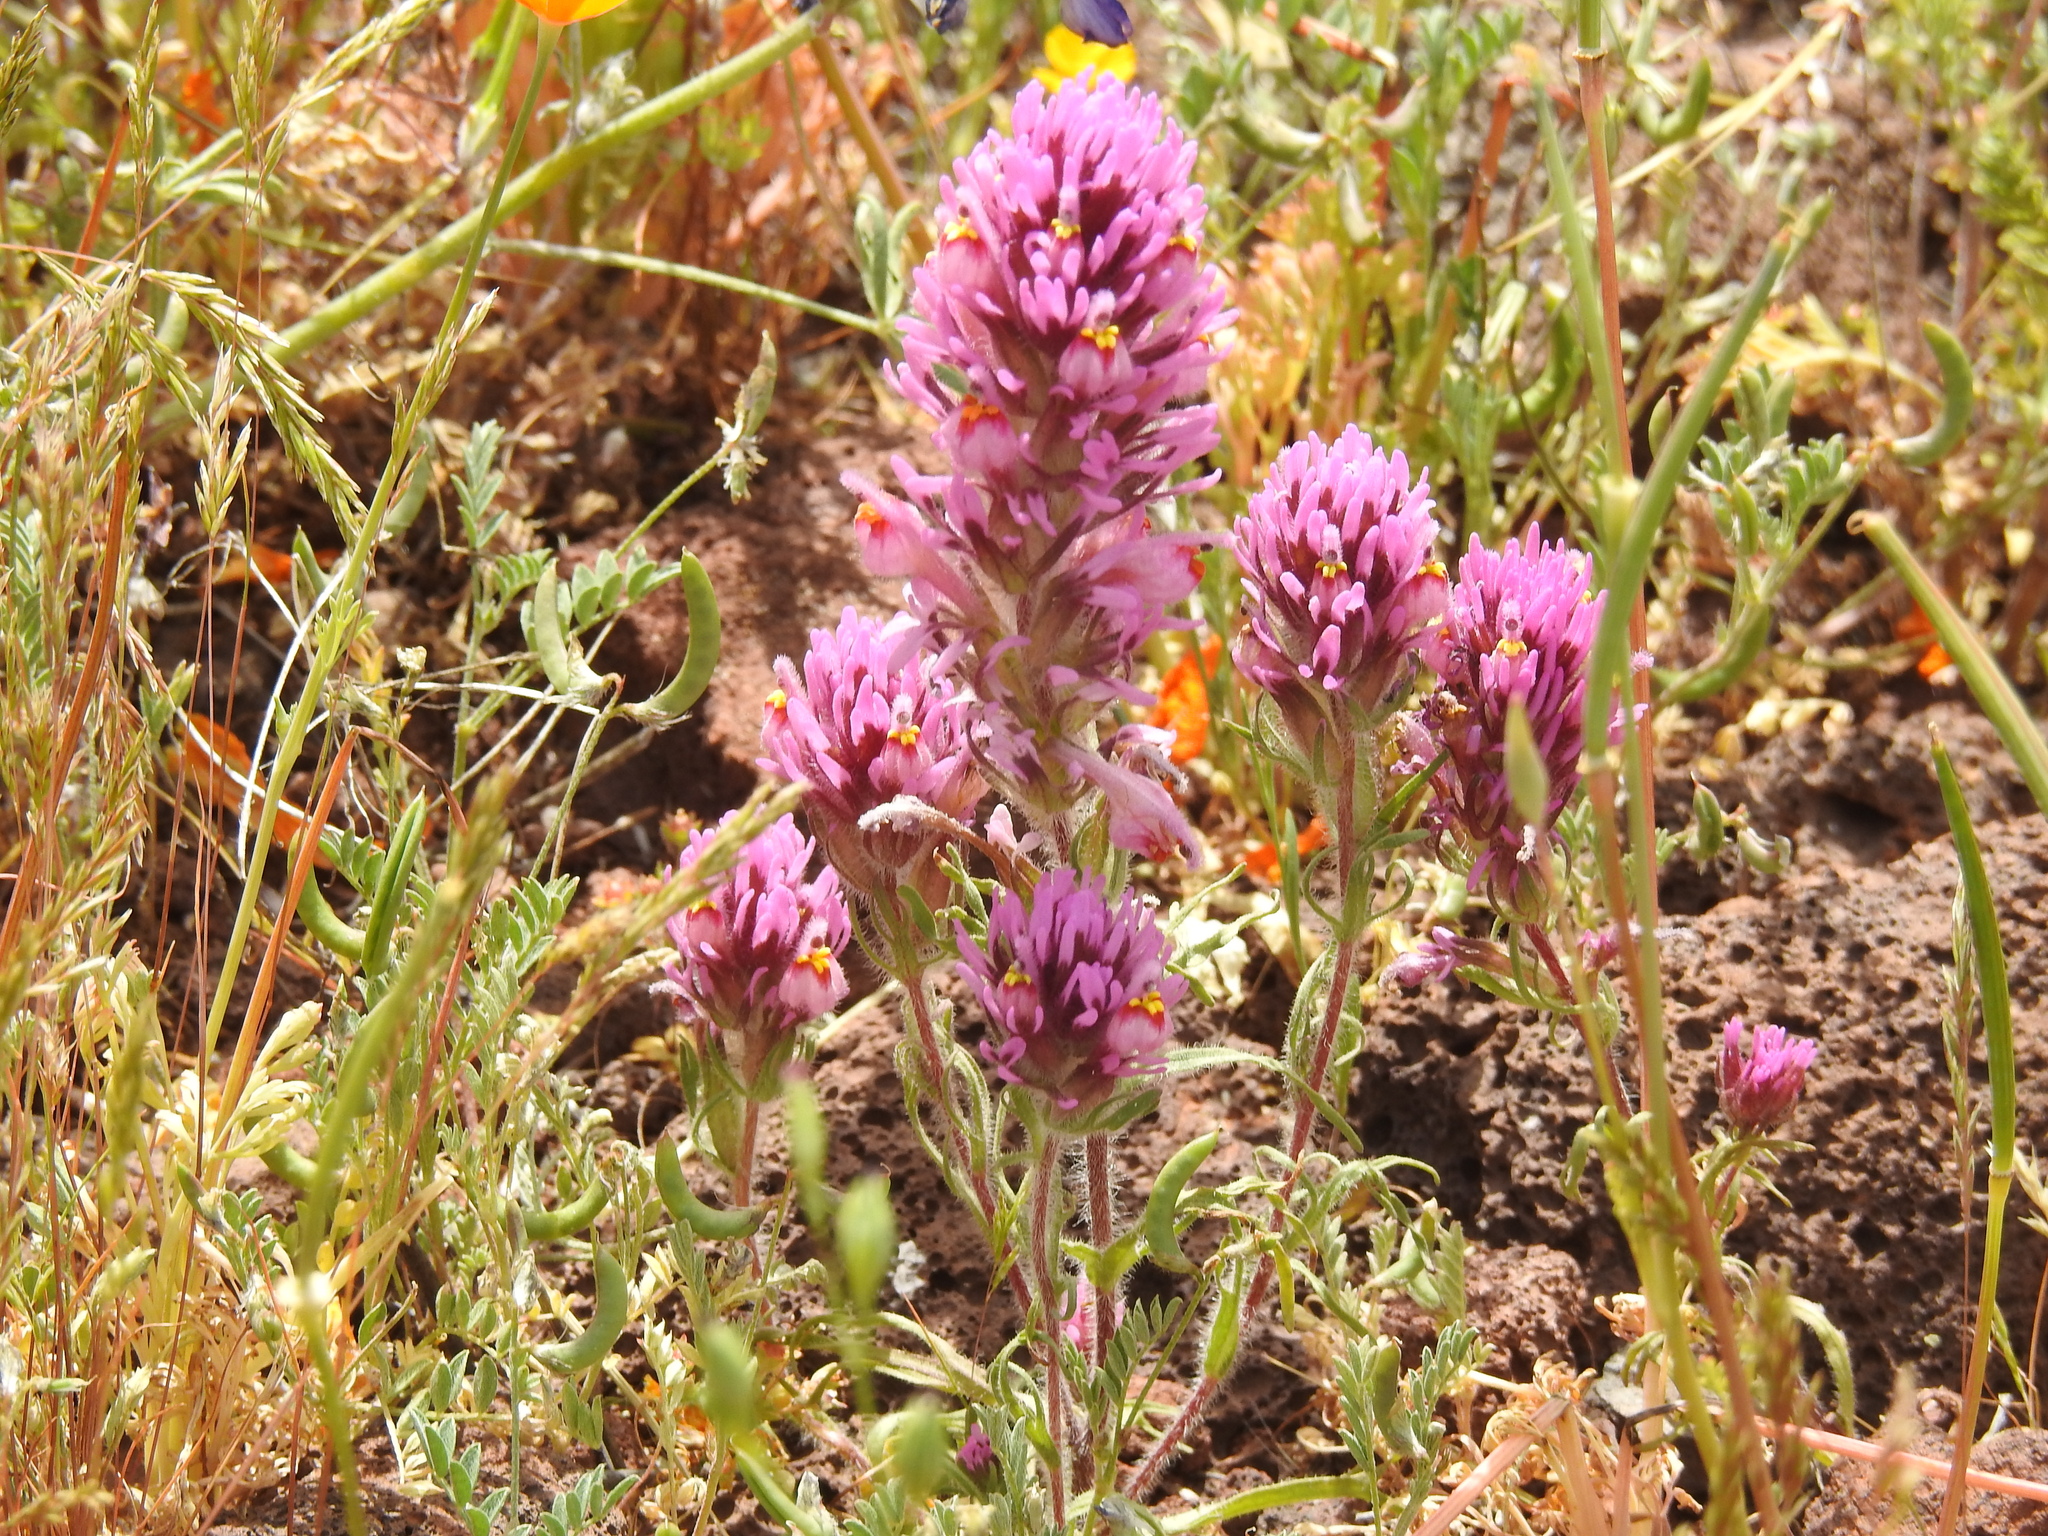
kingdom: Plantae
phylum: Tracheophyta
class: Magnoliopsida
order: Lamiales
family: Orobanchaceae
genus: Castilleja
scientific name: Castilleja exserta
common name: Purple owl-clover
